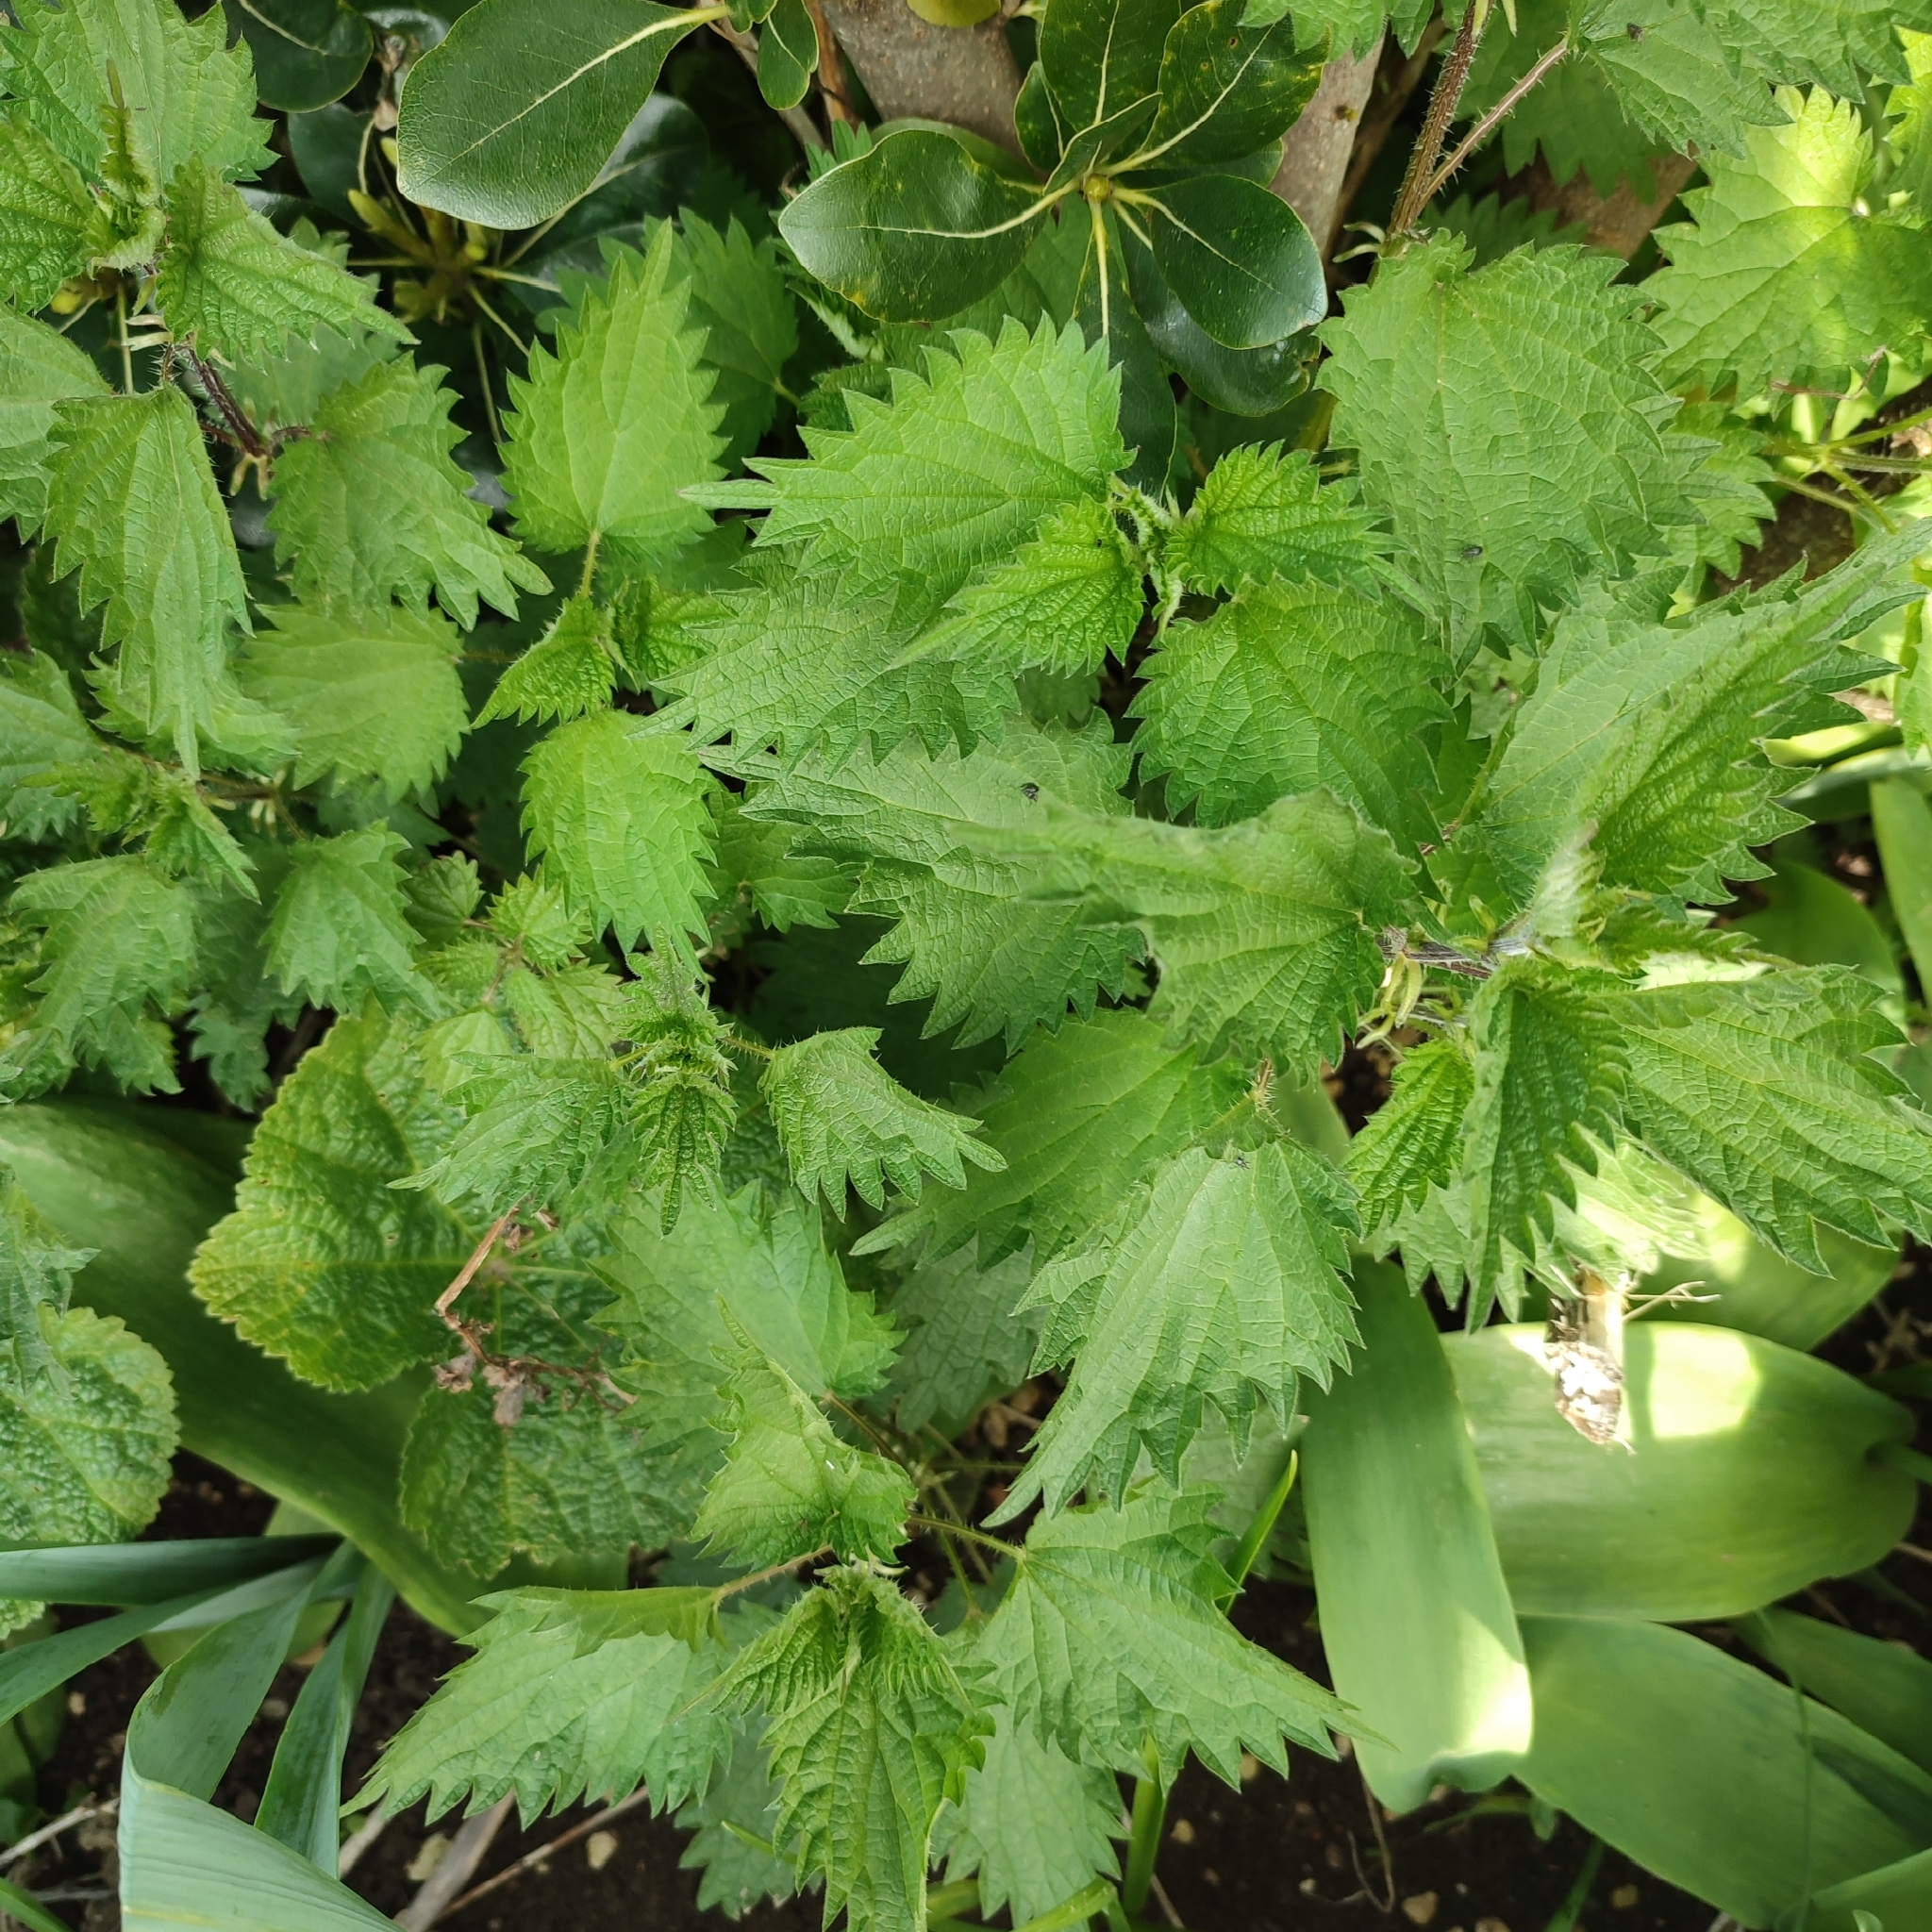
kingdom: Plantae
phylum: Tracheophyta
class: Magnoliopsida
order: Rosales
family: Urticaceae
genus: Urtica
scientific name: Urtica dioica
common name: Common nettle
